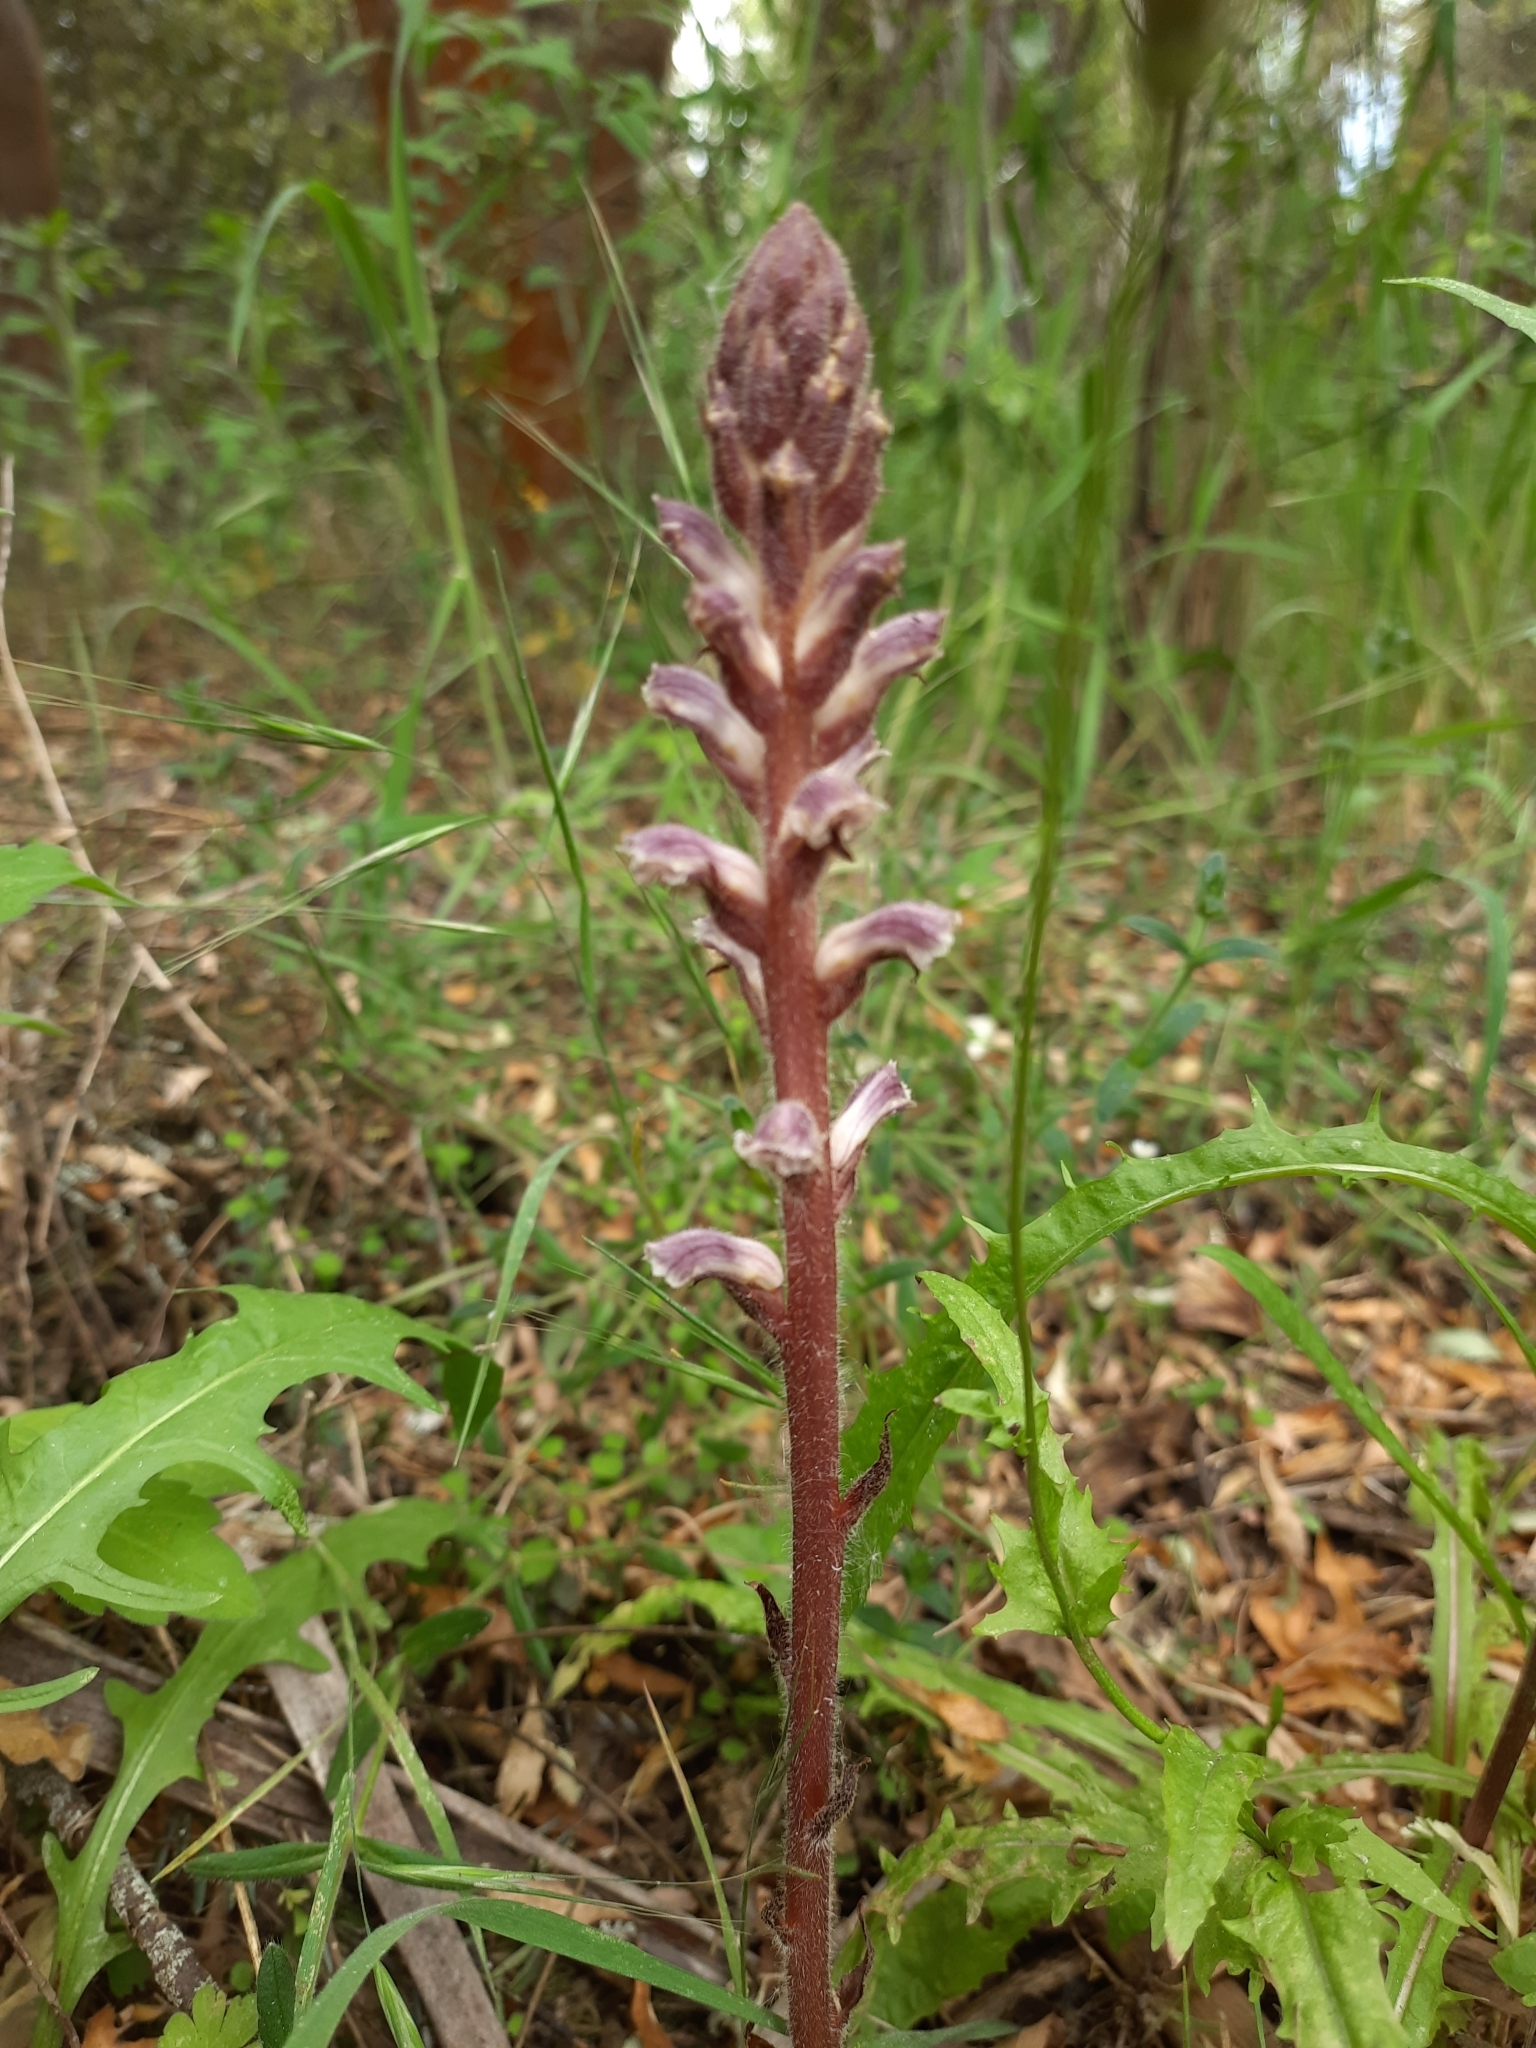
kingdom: Plantae
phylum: Tracheophyta
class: Magnoliopsida
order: Lamiales
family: Orobanchaceae
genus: Orobanche
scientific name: Orobanche minor
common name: Common broomrape
